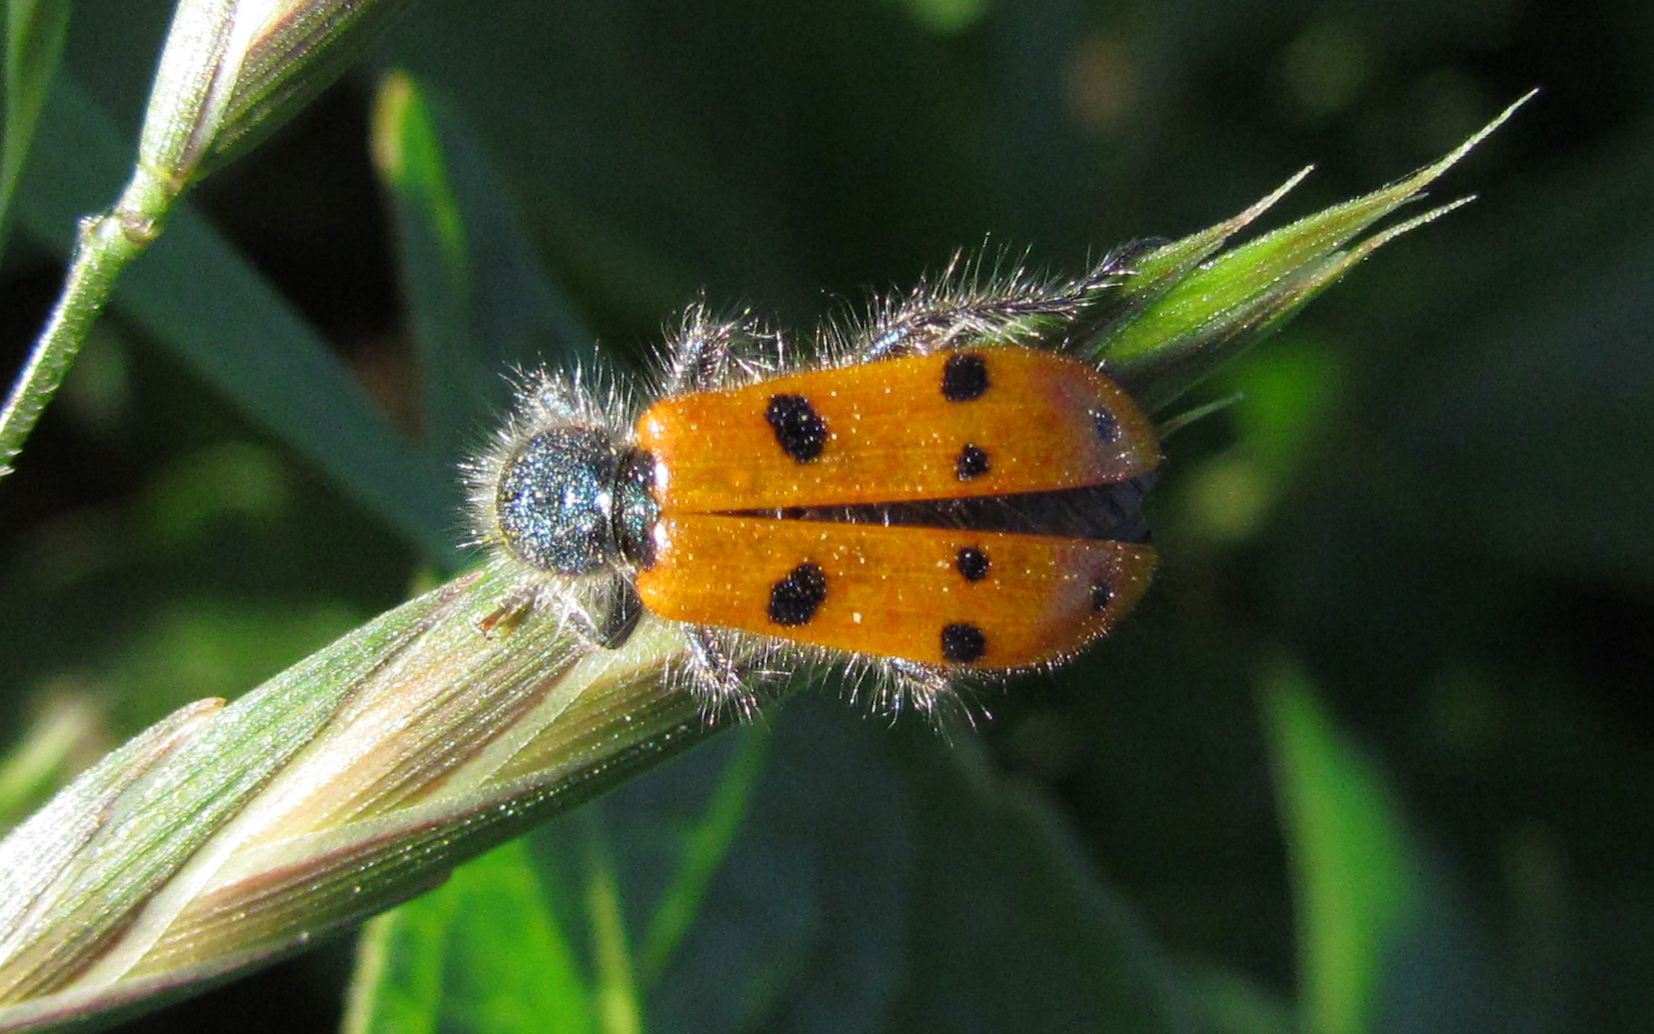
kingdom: Animalia
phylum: Arthropoda
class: Insecta
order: Coleoptera
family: Cleridae
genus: Trichodes
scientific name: Trichodes octopunctatus
